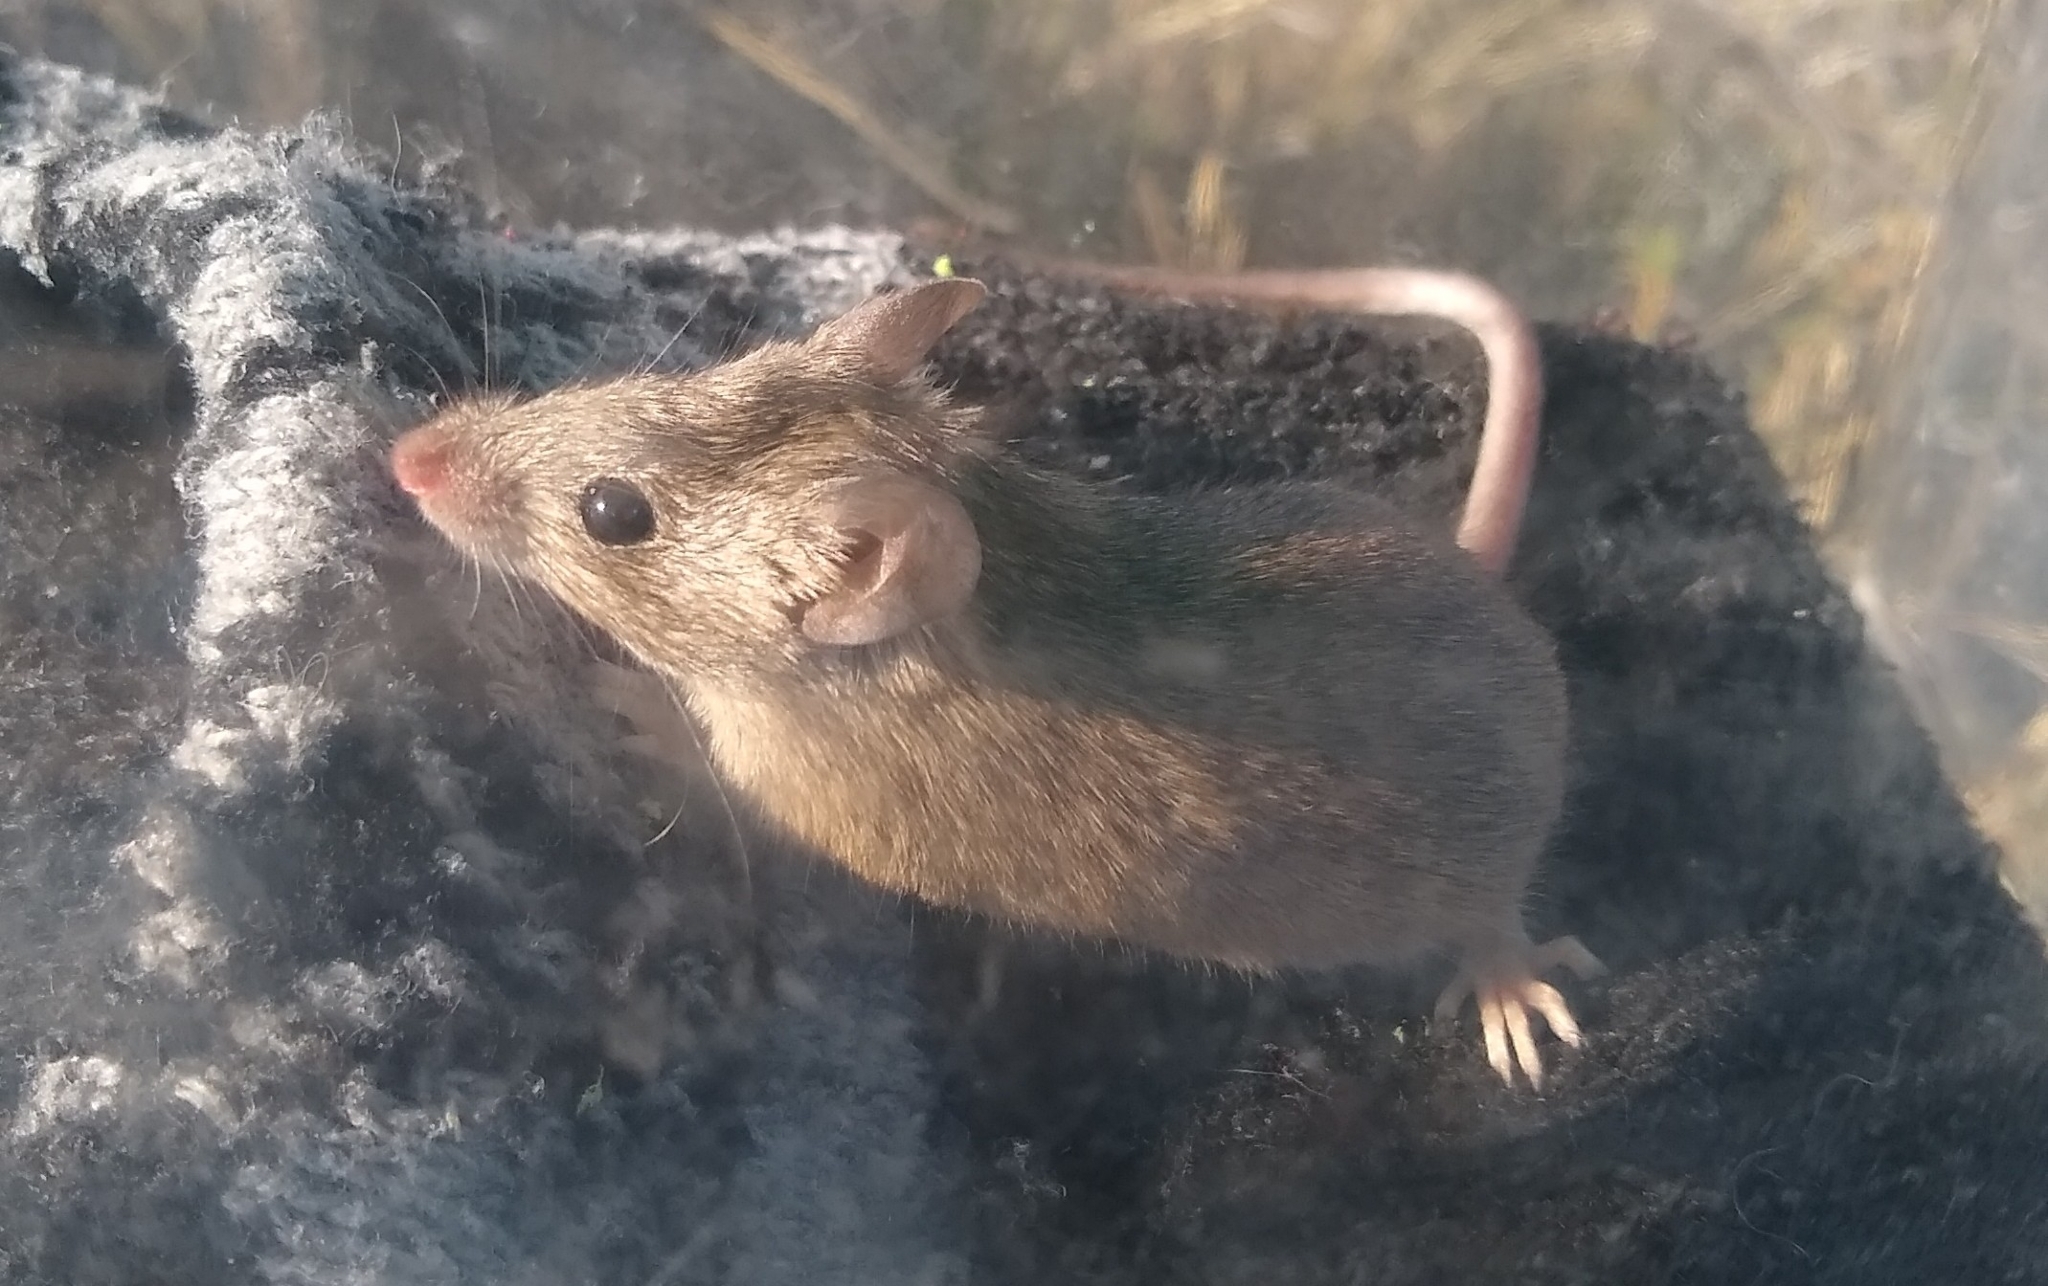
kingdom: Animalia
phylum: Chordata
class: Mammalia
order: Rodentia
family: Muridae
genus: Mus
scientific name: Mus musculus
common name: House mouse
